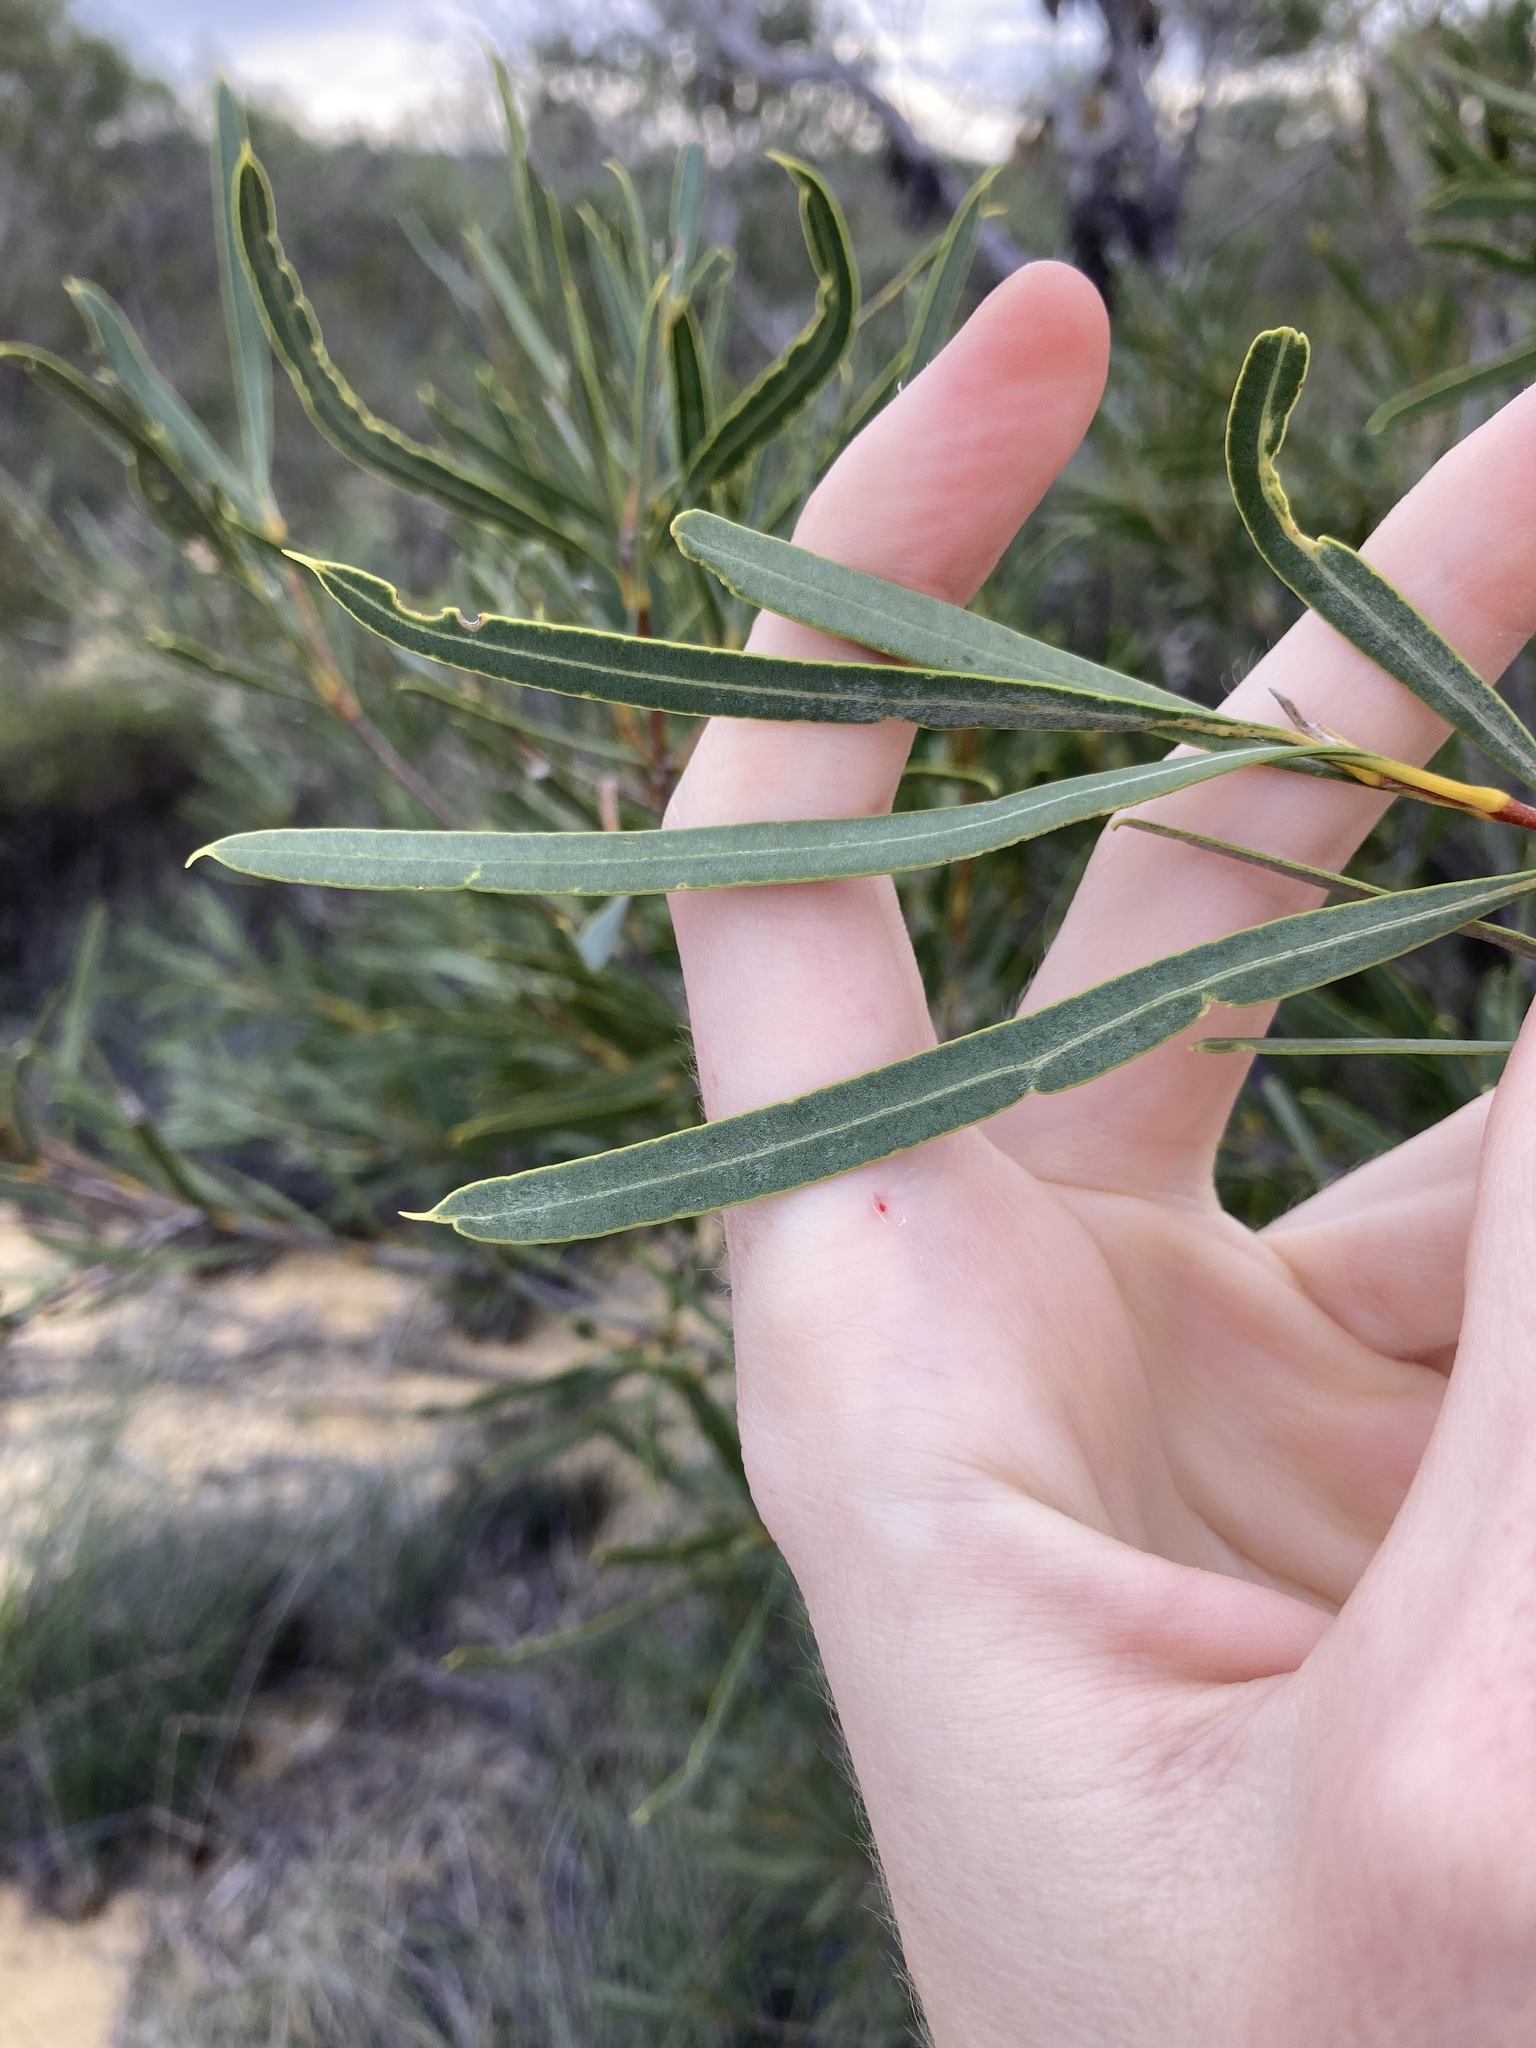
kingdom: Plantae
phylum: Tracheophyta
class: Magnoliopsida
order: Proteales
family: Proteaceae
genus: Xylomelum
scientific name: Xylomelum angustifolium
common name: Sandplain woody-pear
